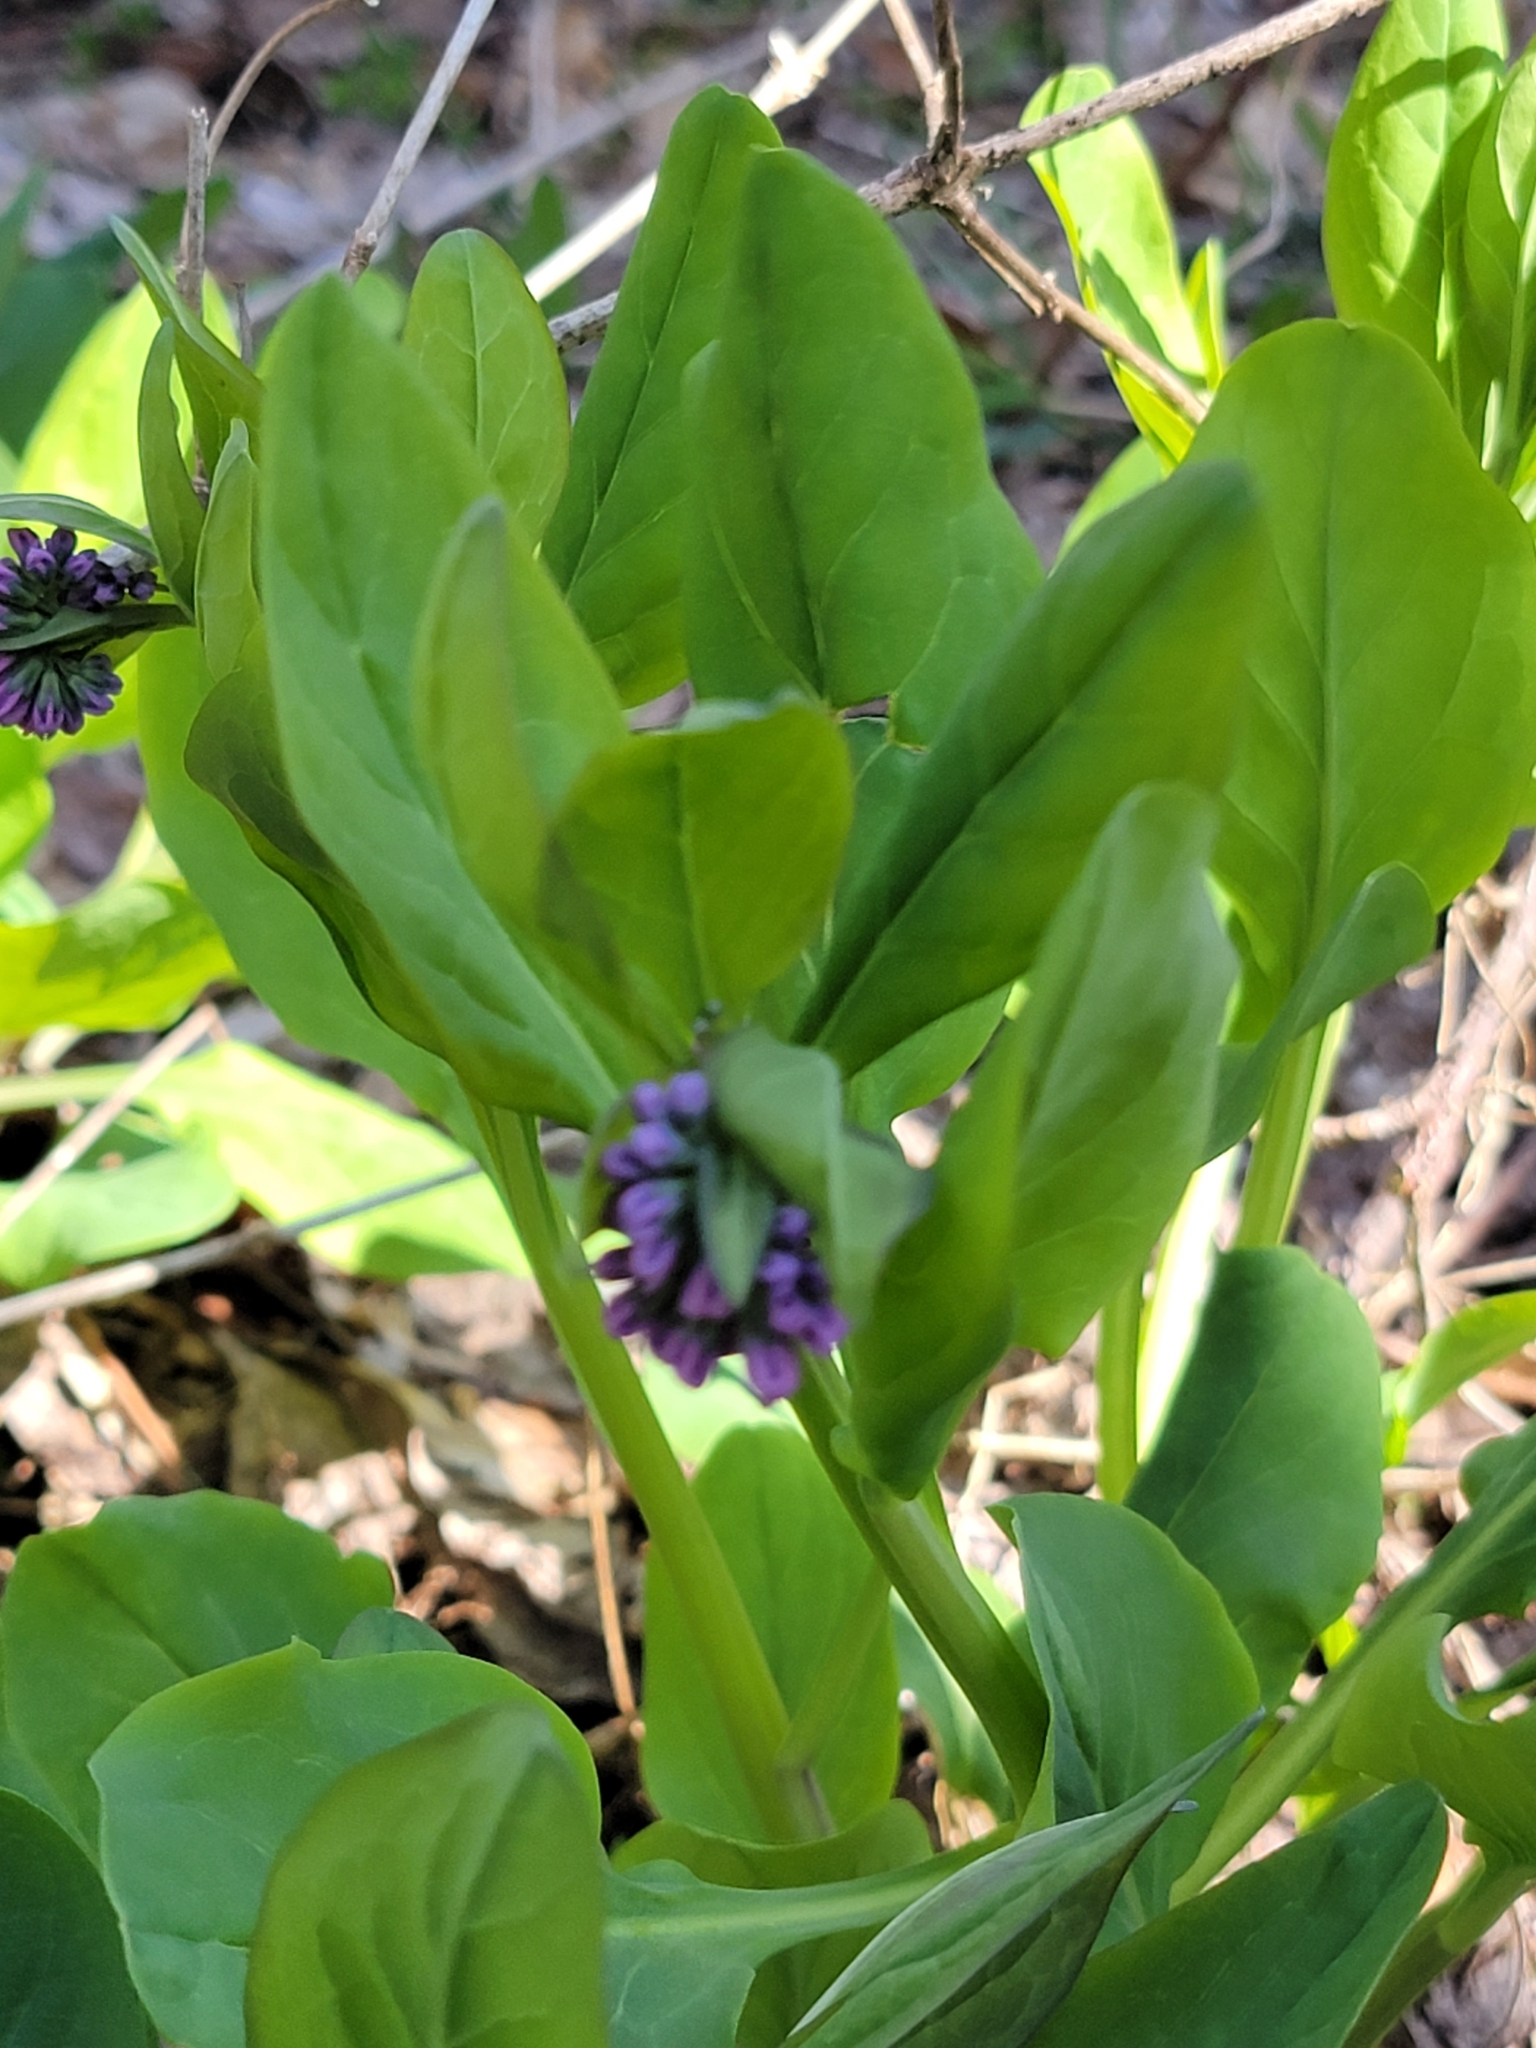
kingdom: Plantae
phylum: Tracheophyta
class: Magnoliopsida
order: Boraginales
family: Boraginaceae
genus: Mertensia
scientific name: Mertensia virginica
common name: Virginia bluebells
